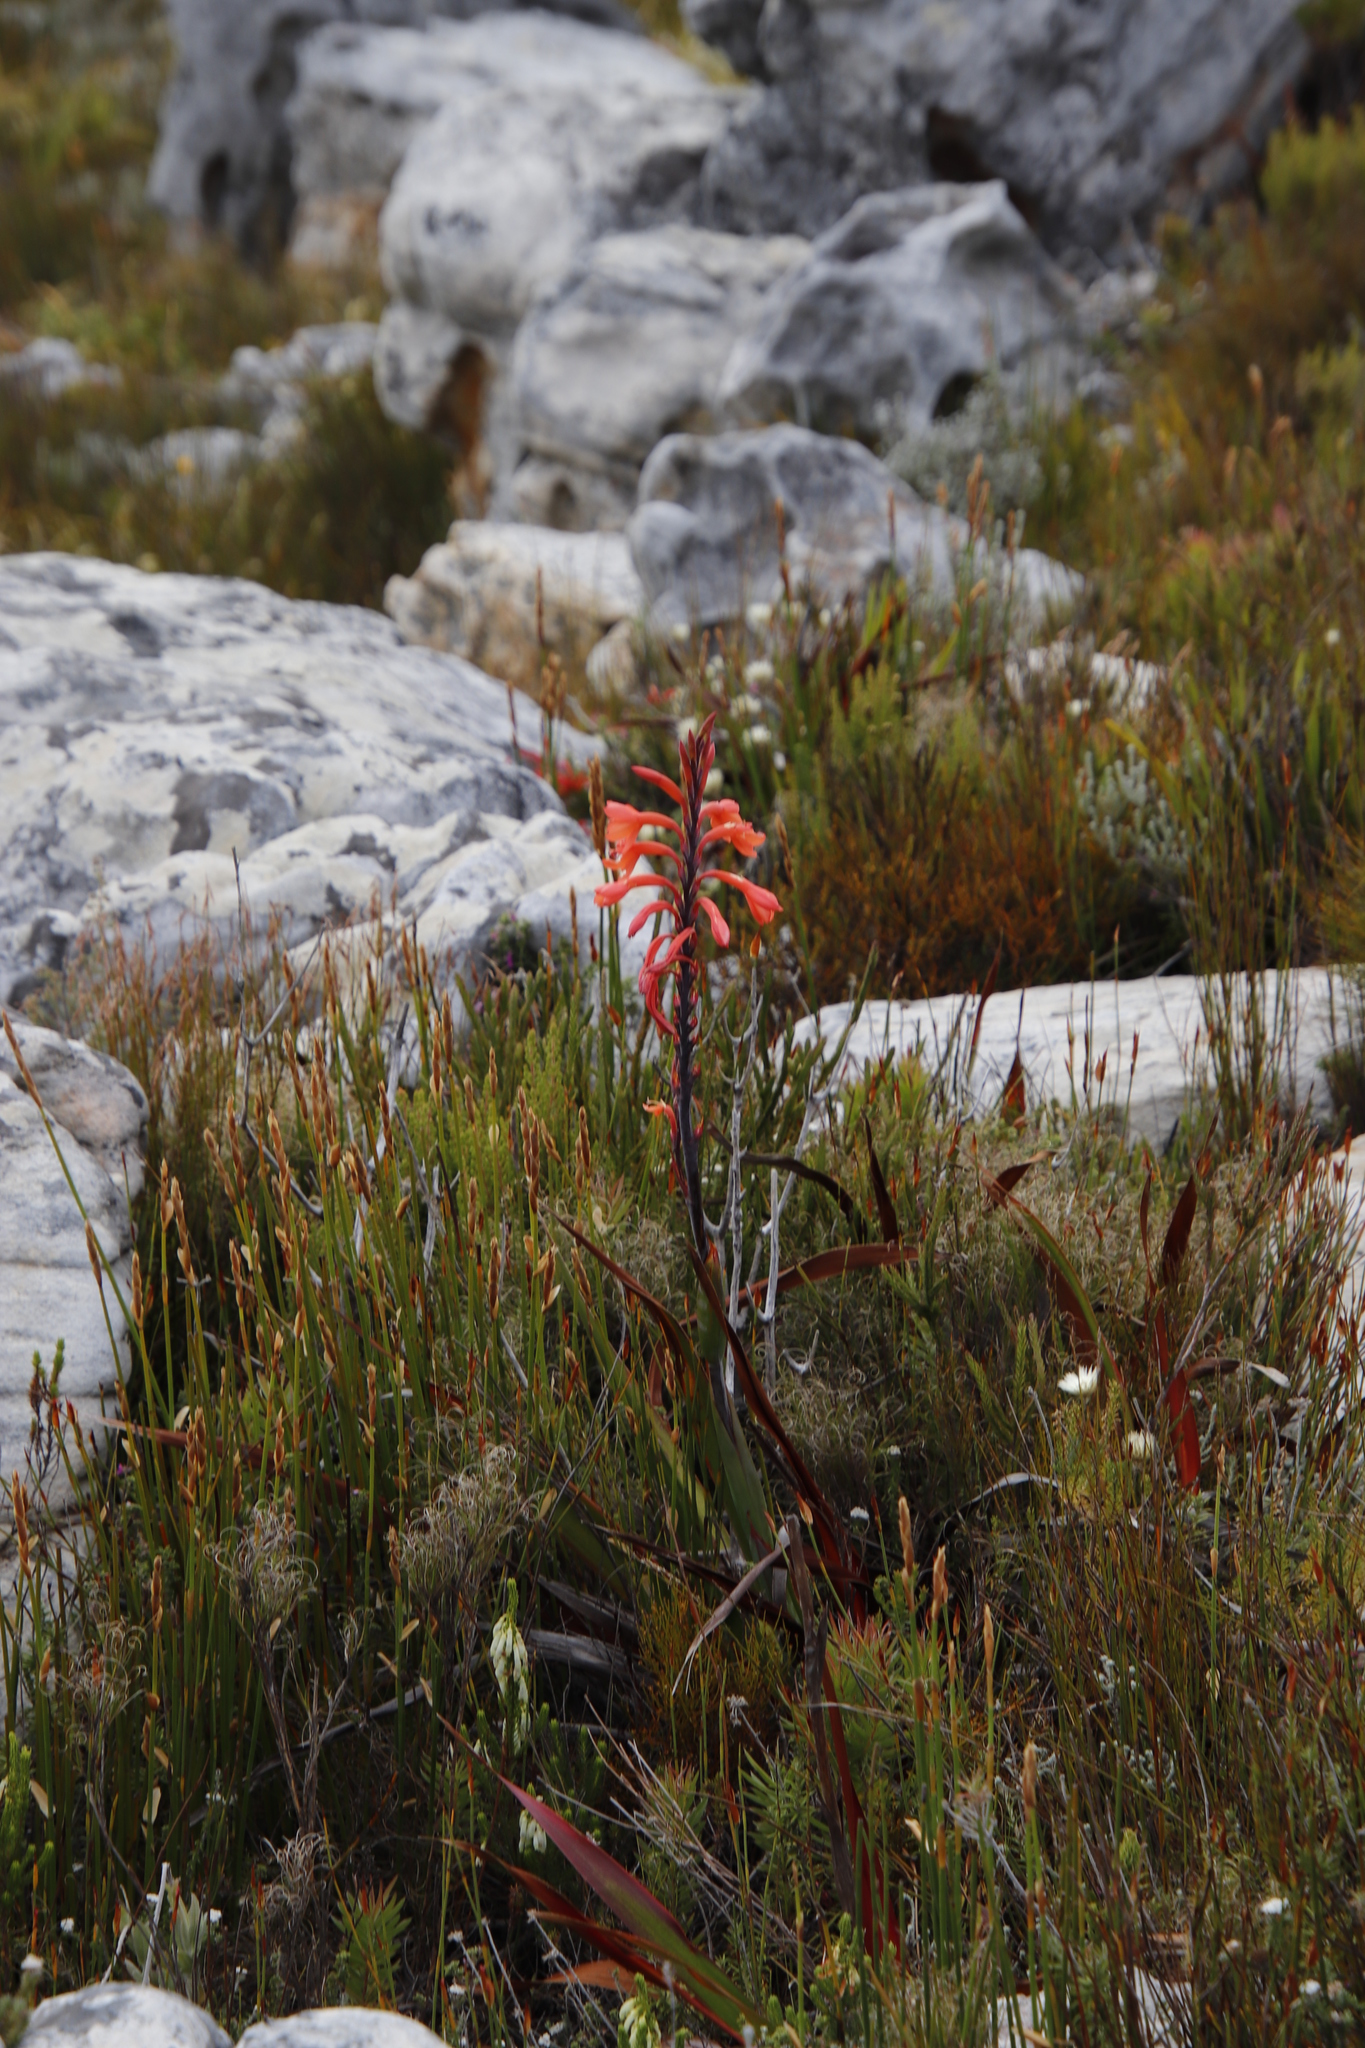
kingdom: Plantae
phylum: Tracheophyta
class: Liliopsida
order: Asparagales
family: Iridaceae
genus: Watsonia
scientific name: Watsonia tabularis
